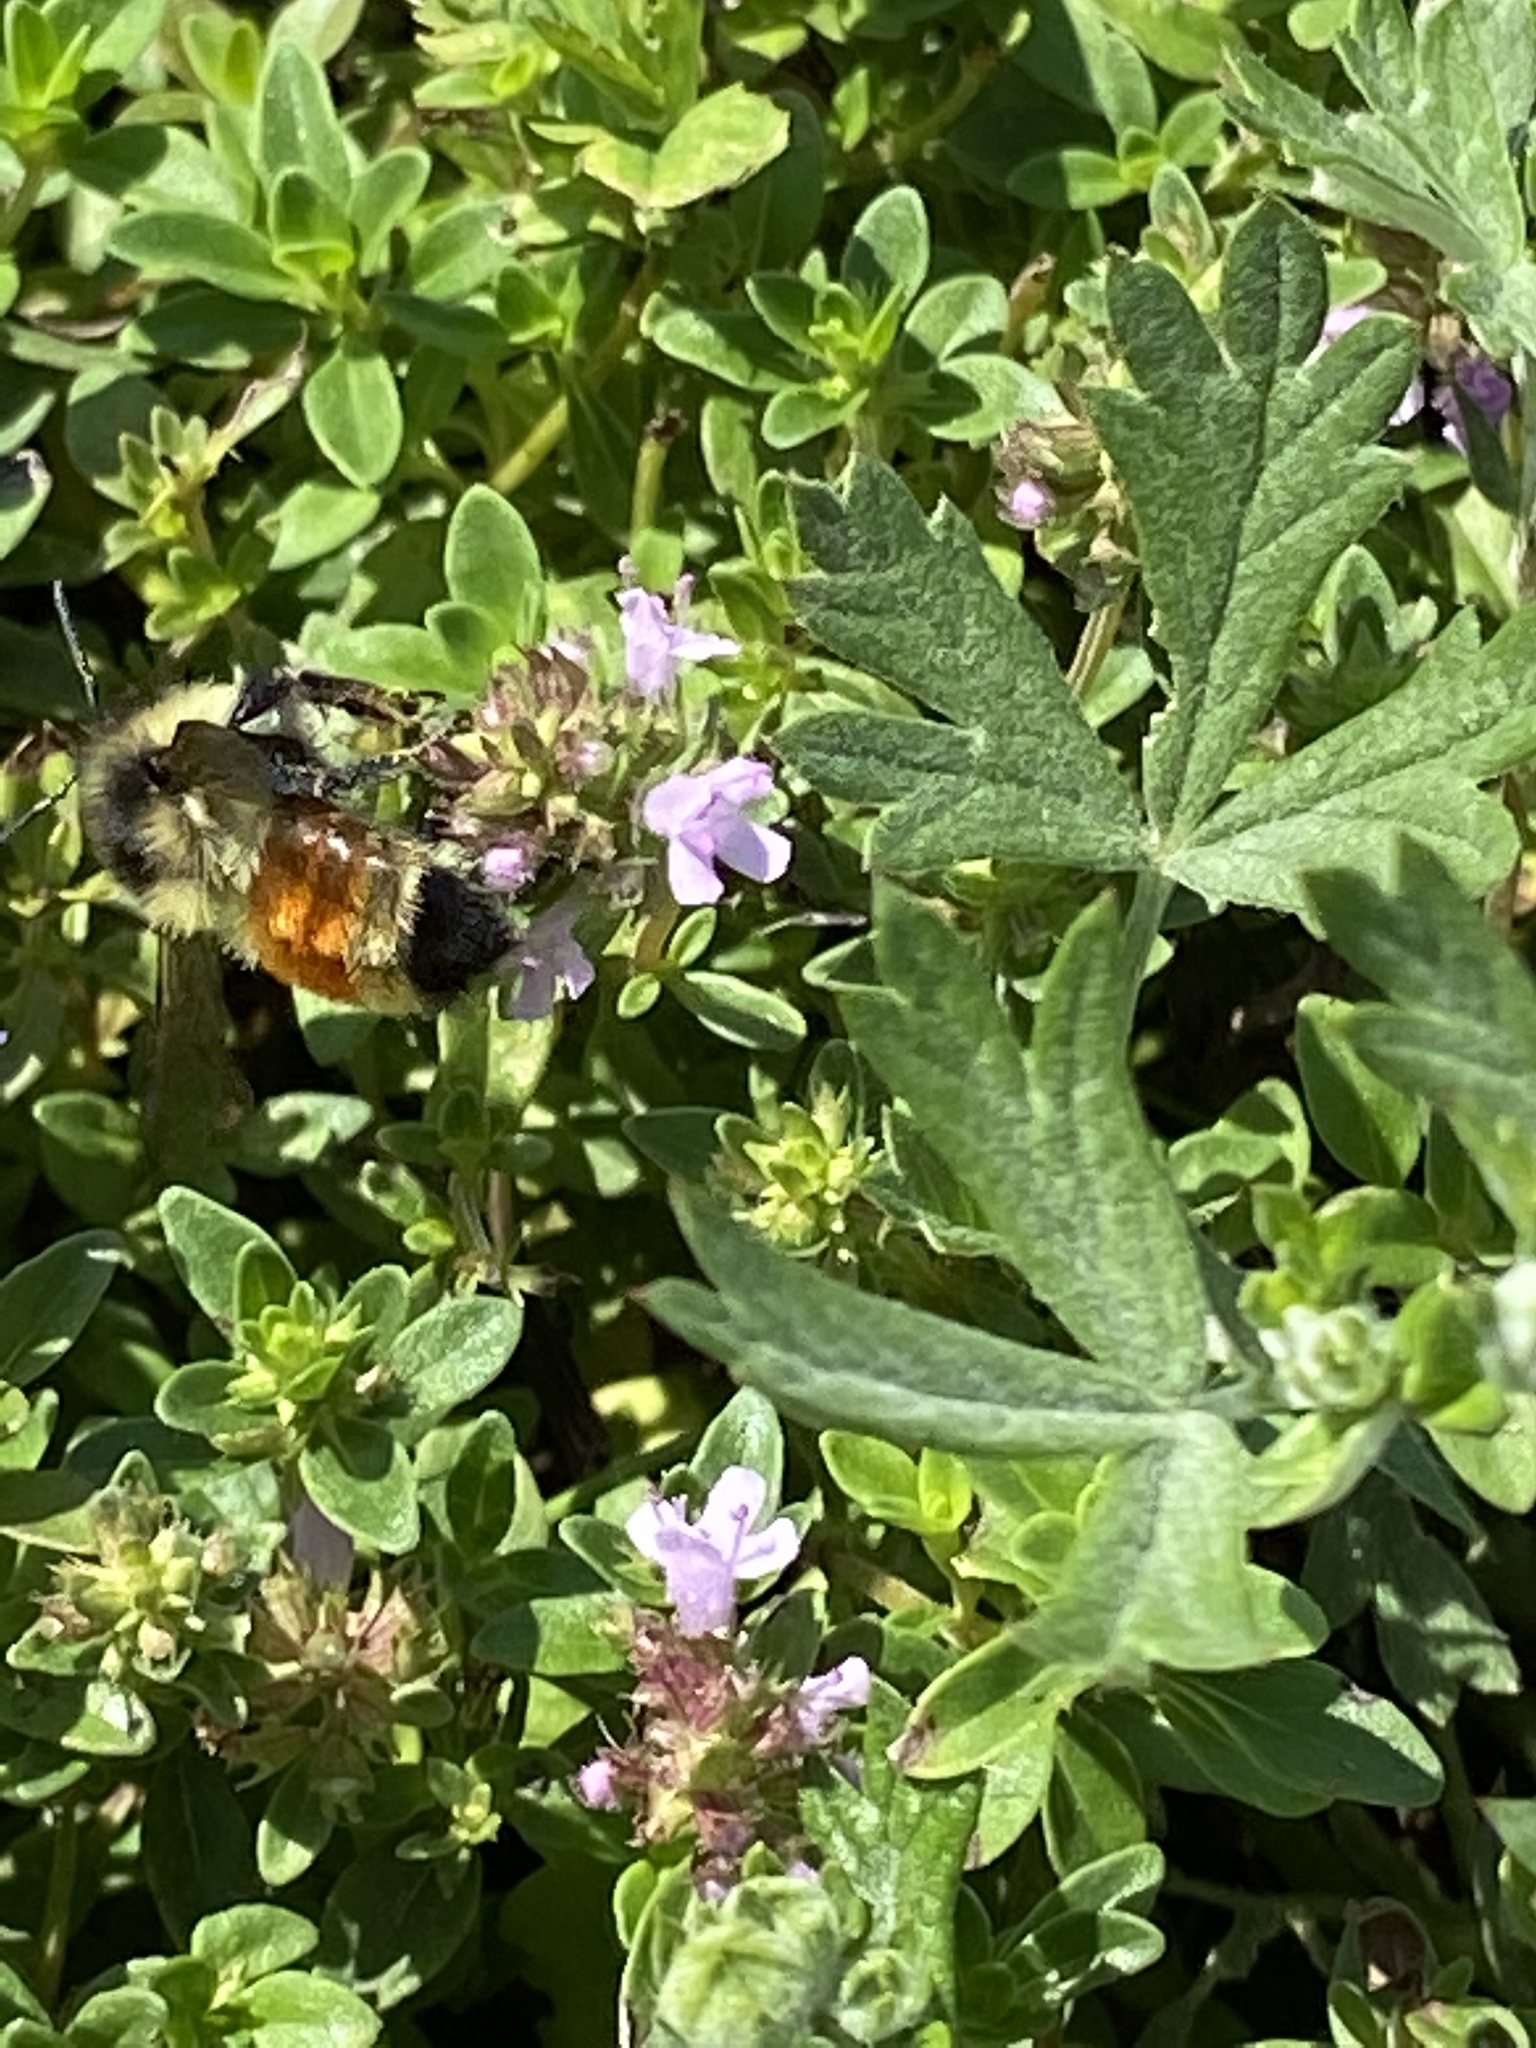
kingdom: Animalia
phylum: Arthropoda
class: Insecta
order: Hymenoptera
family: Apidae
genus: Bombus
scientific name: Bombus ternarius
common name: Tri-colored bumble bee
